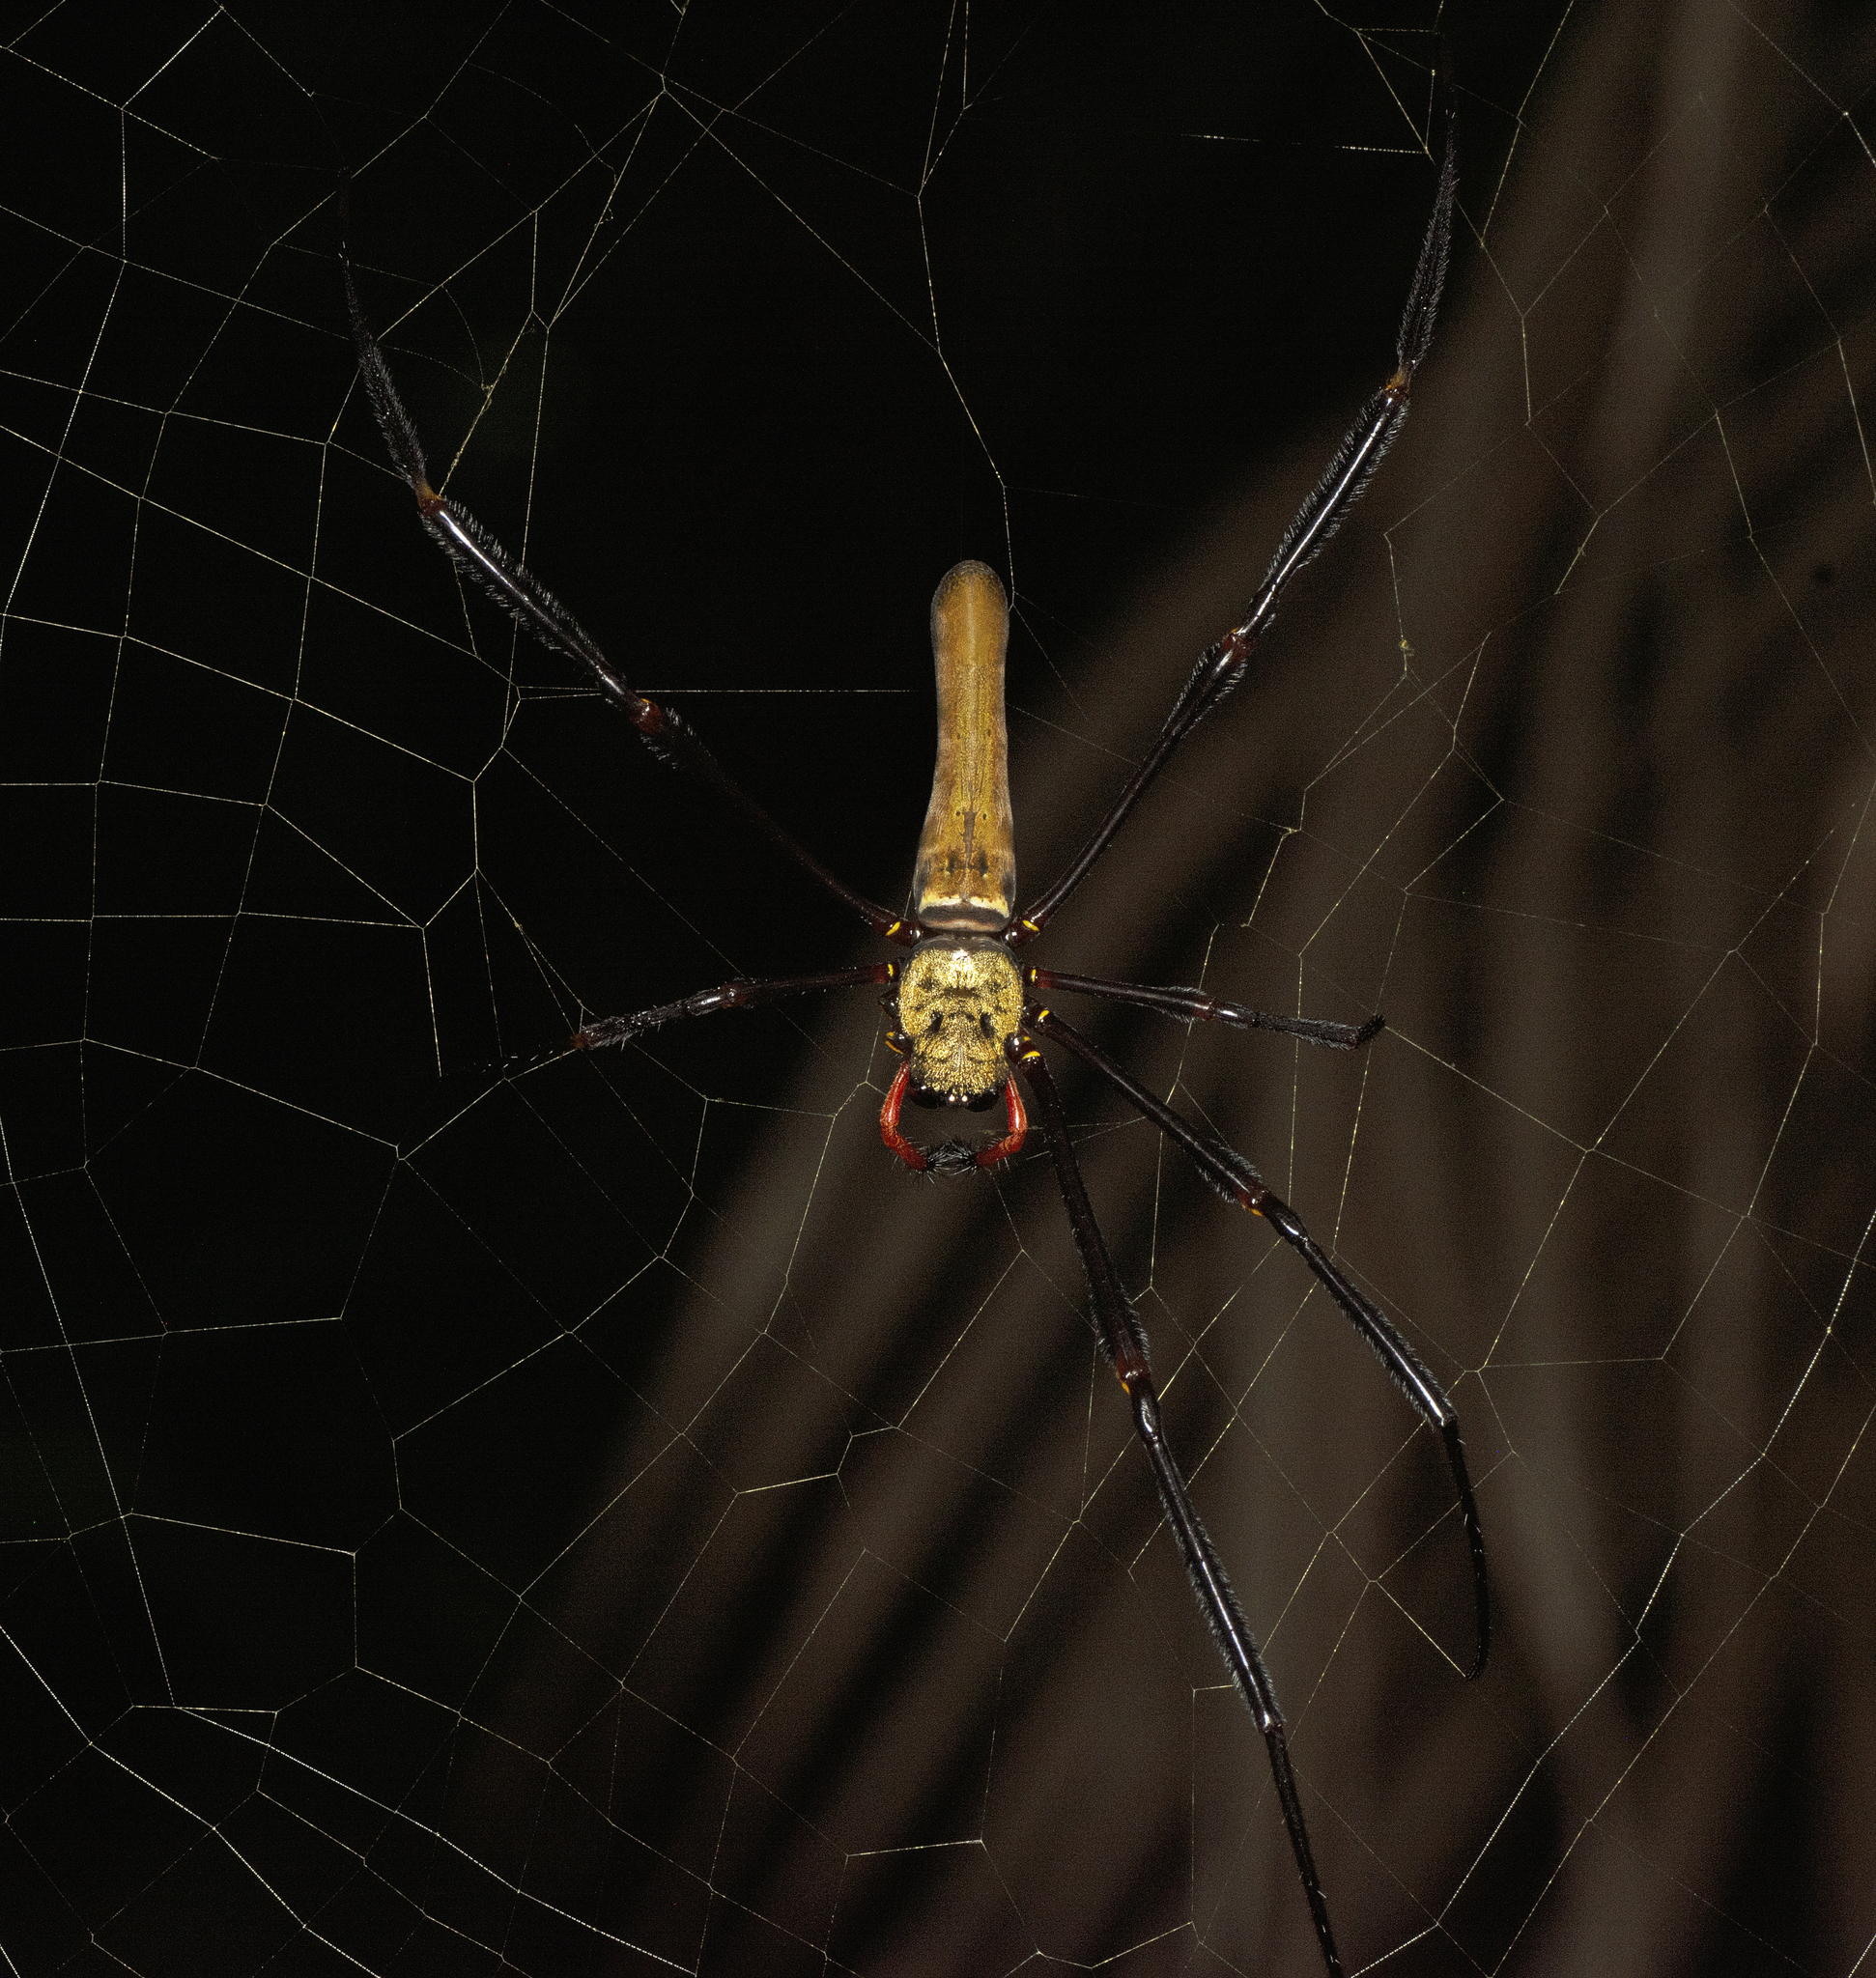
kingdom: Animalia
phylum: Arthropoda
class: Arachnida
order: Araneae
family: Araneidae
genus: Nephila
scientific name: Nephila pilipes
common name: Giant golden orb weaver
